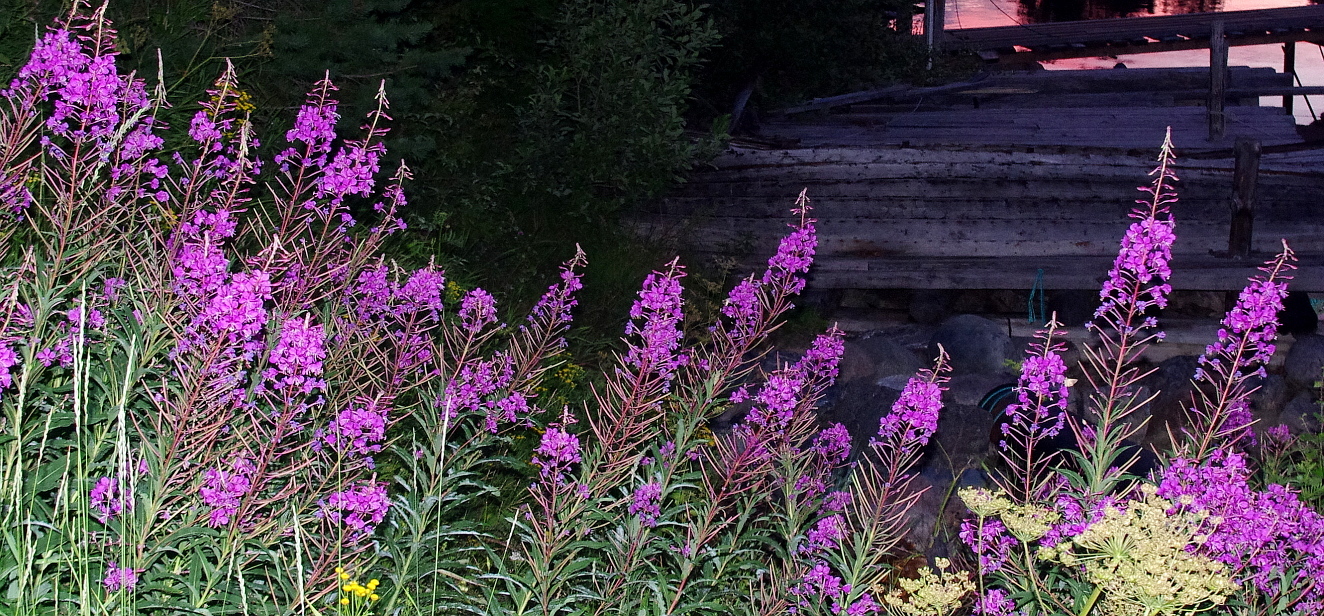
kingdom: Plantae
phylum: Tracheophyta
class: Magnoliopsida
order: Myrtales
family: Onagraceae
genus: Chamaenerion
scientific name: Chamaenerion angustifolium
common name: Fireweed
